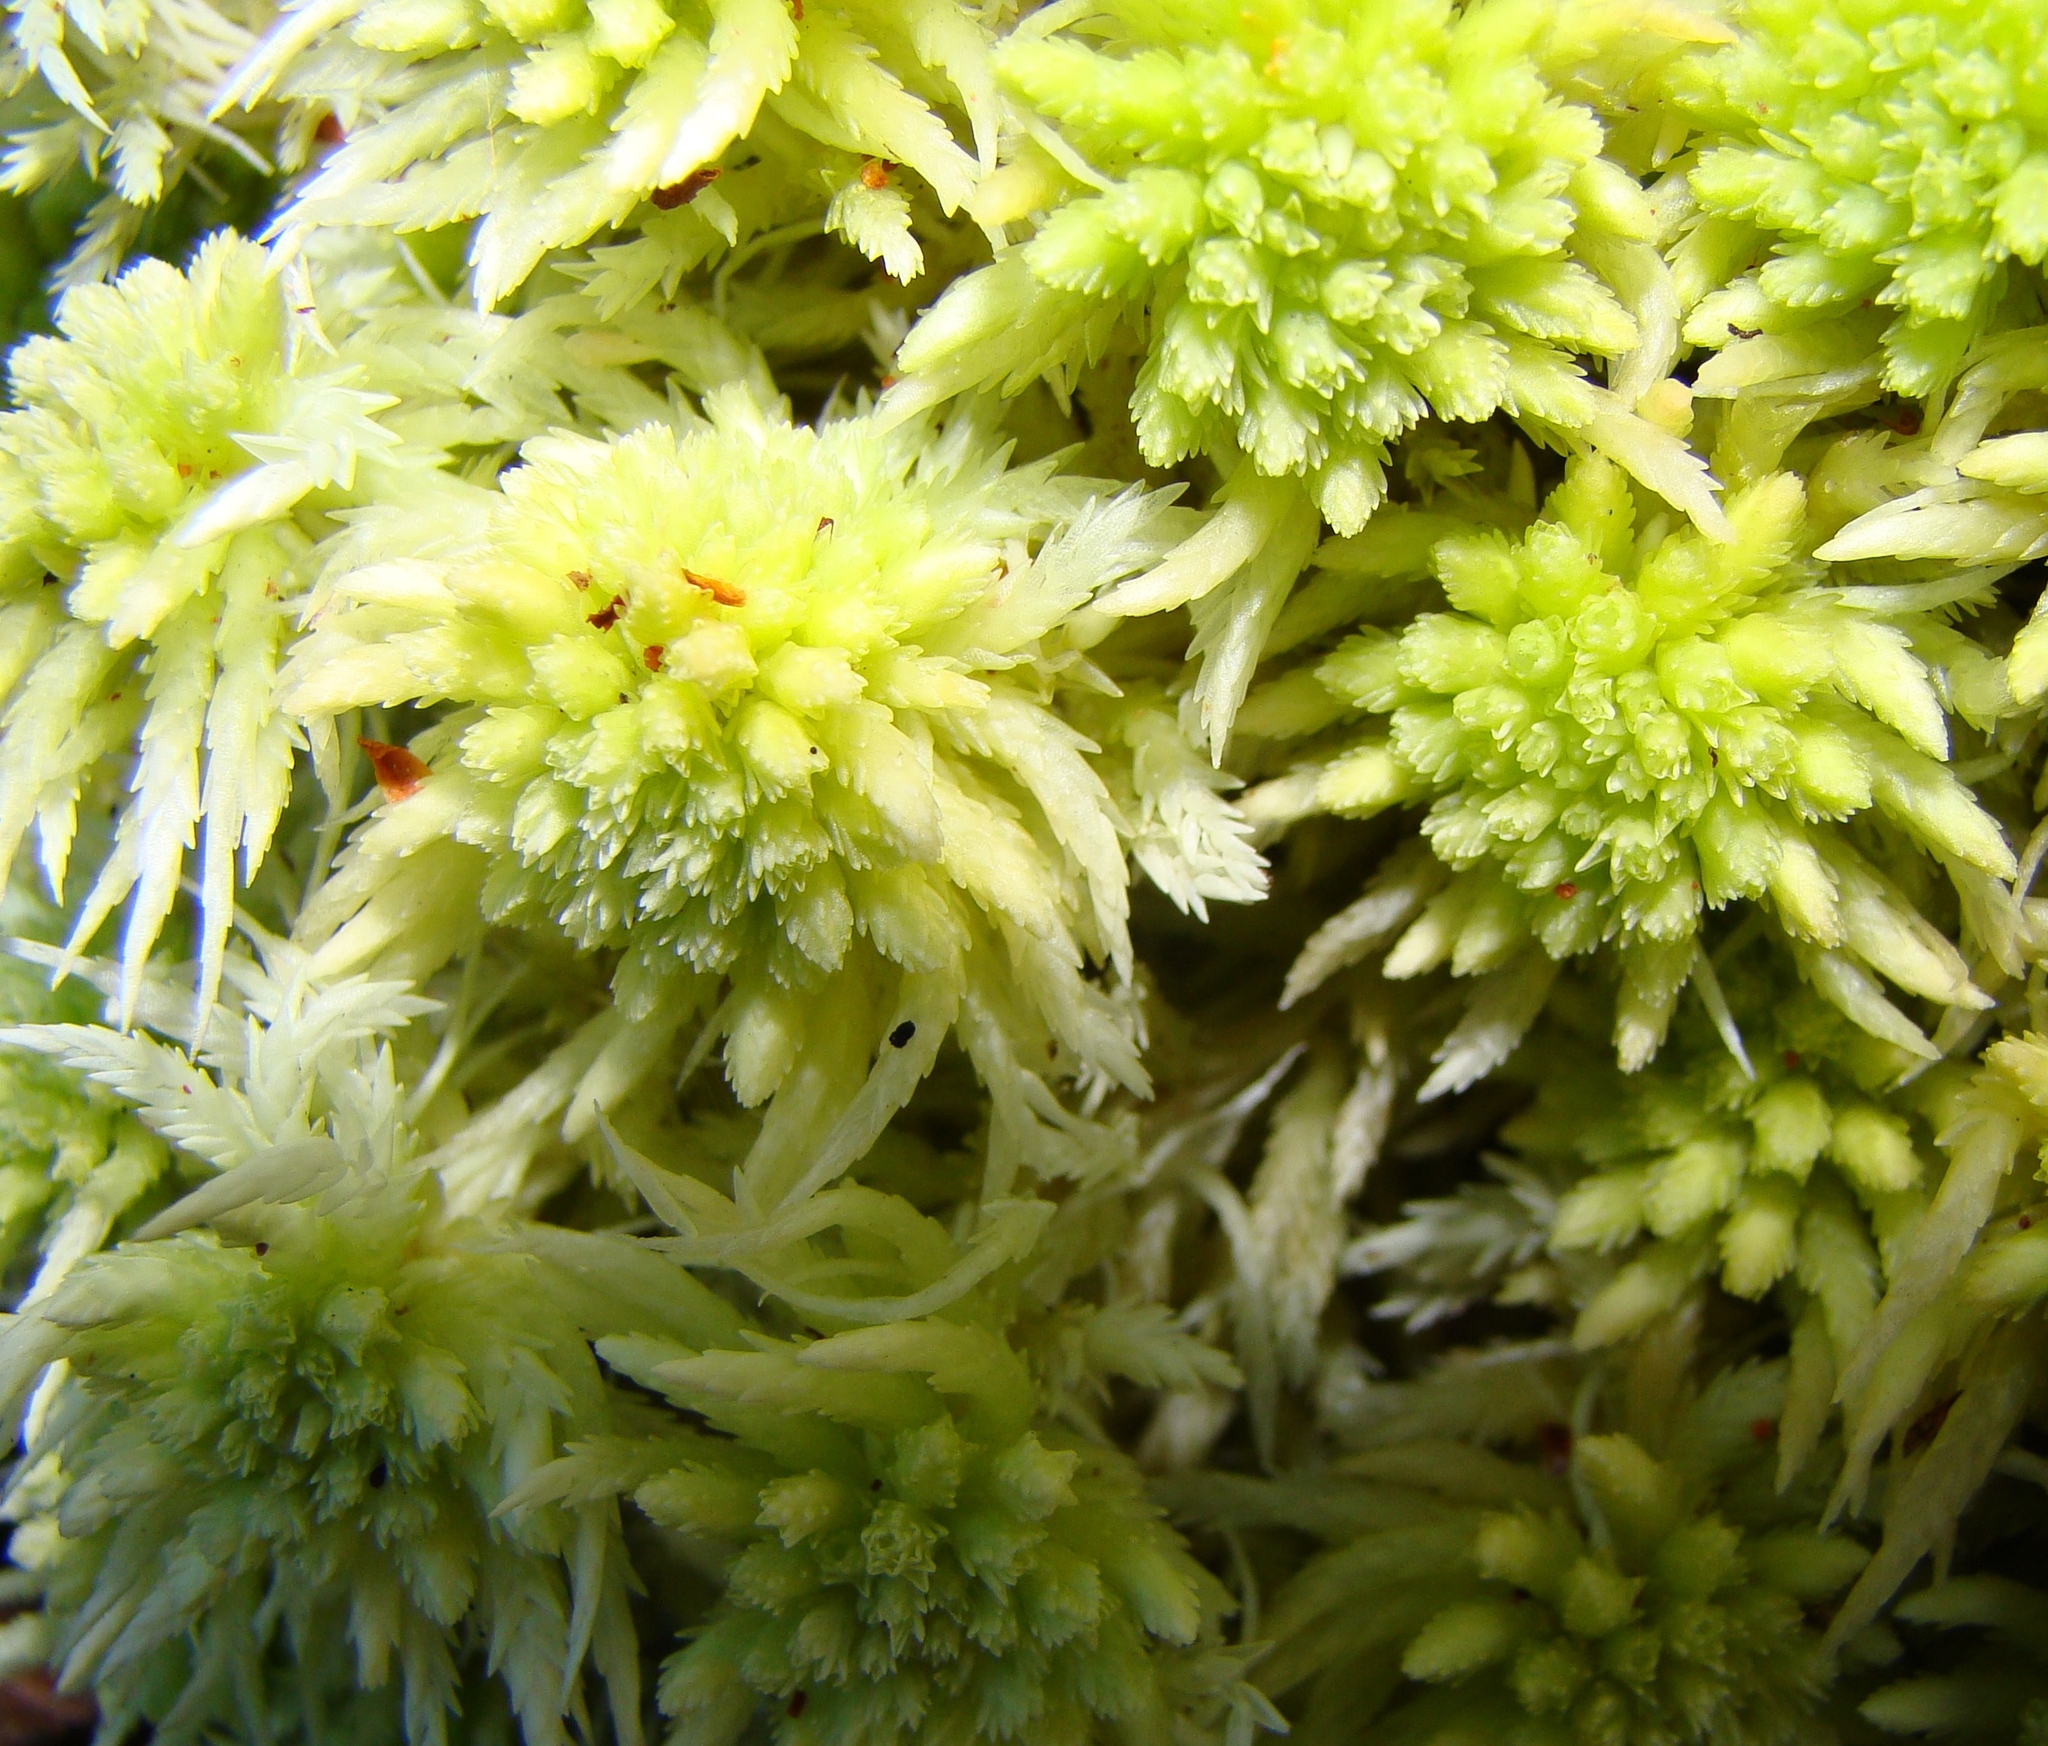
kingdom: Plantae
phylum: Bryophyta
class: Sphagnopsida
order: Sphagnales
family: Sphagnaceae
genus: Sphagnum
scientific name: Sphagnum
